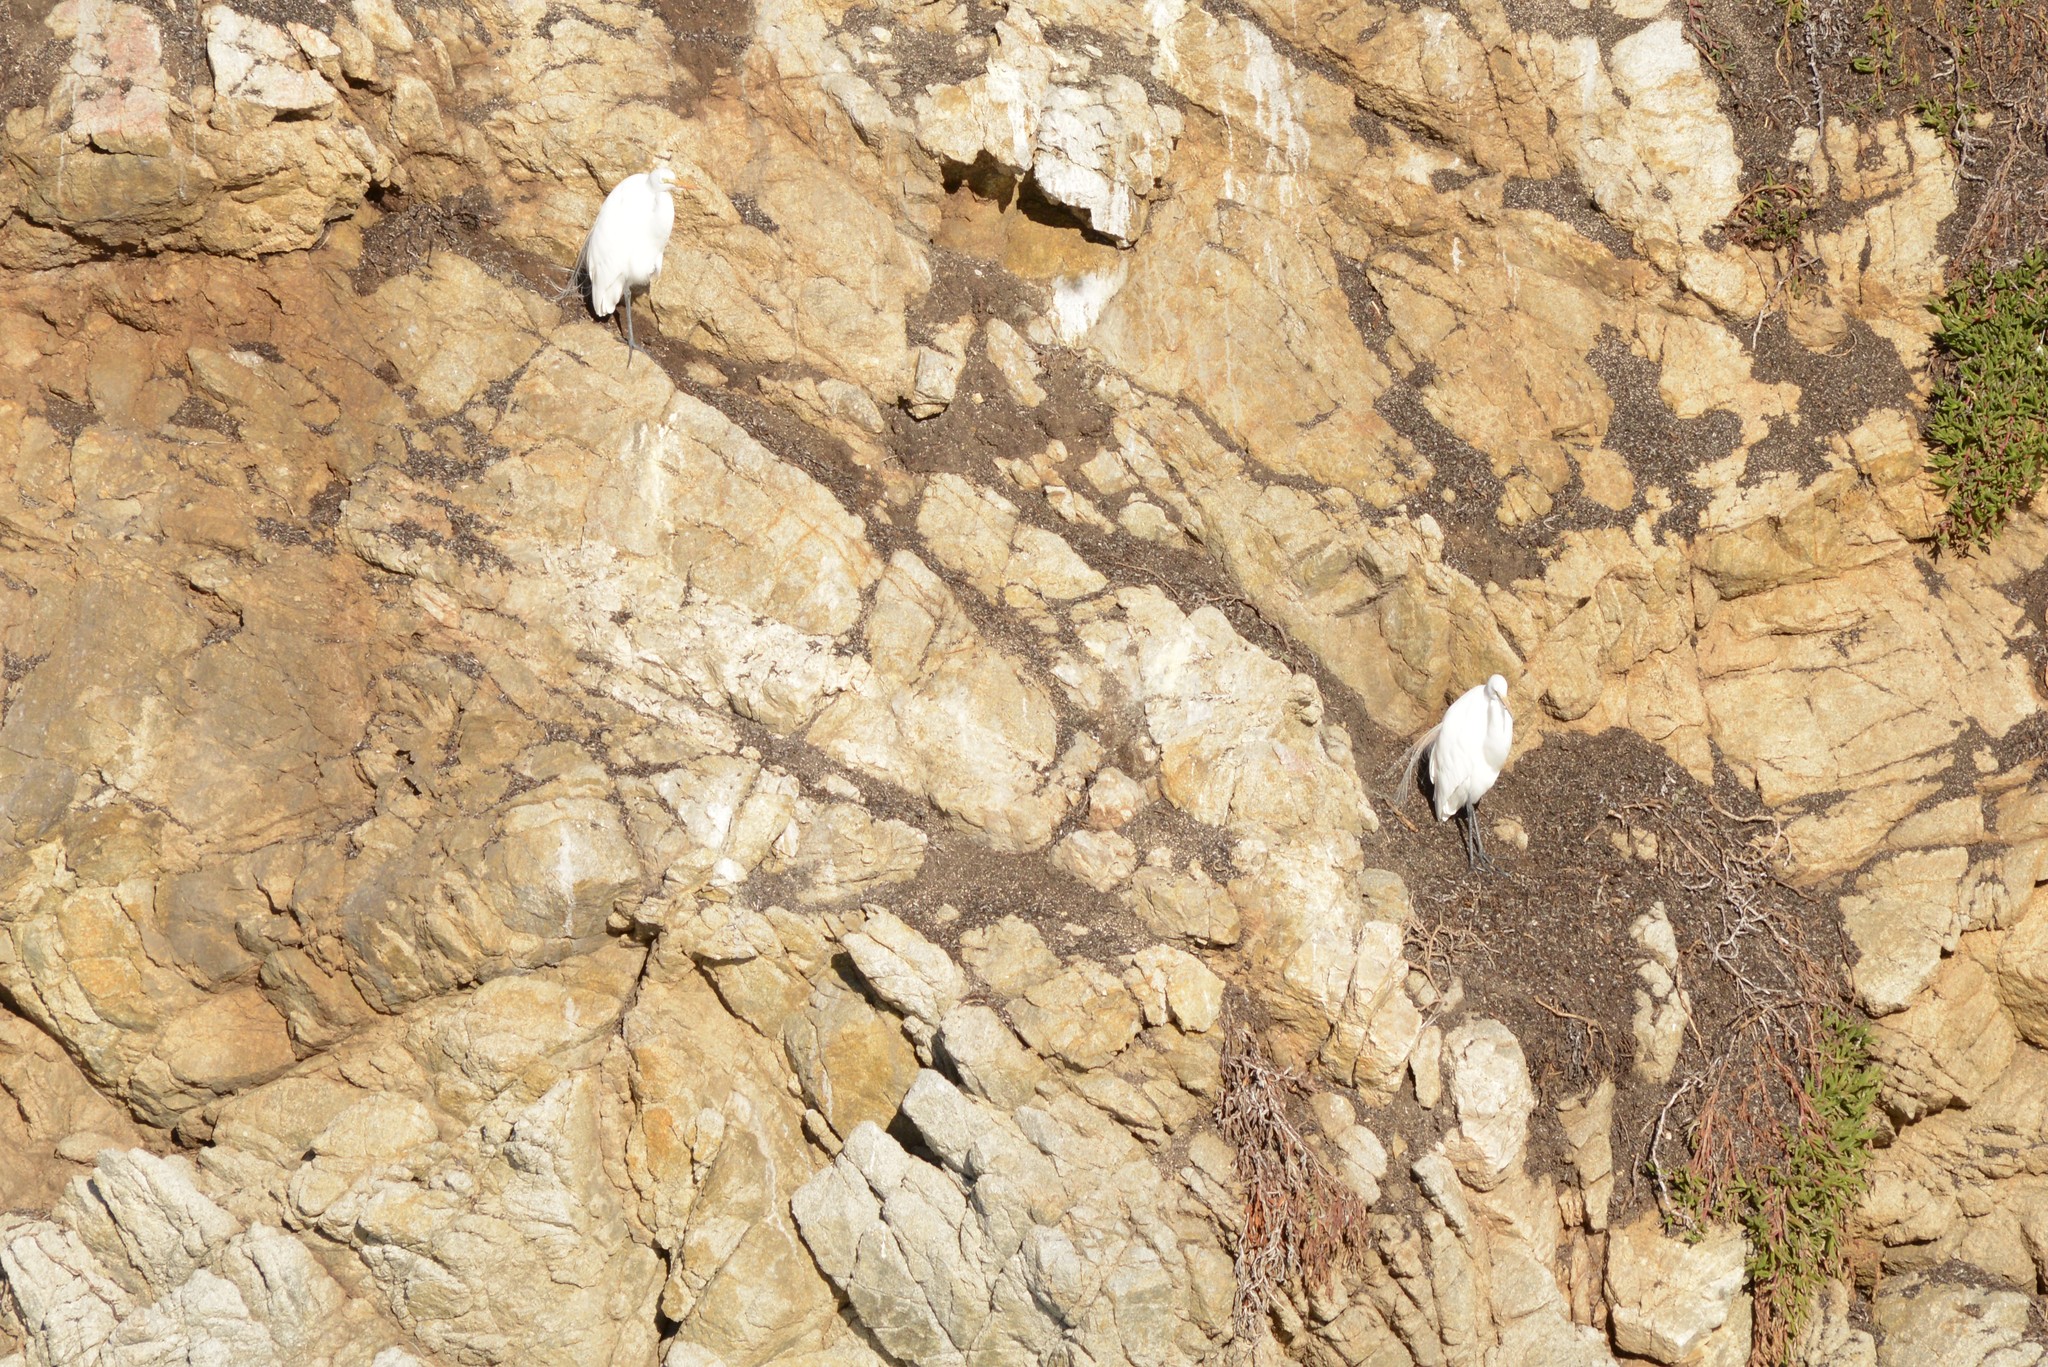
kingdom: Animalia
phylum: Chordata
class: Aves
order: Pelecaniformes
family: Ardeidae
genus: Ardea
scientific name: Ardea alba
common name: Great egret
